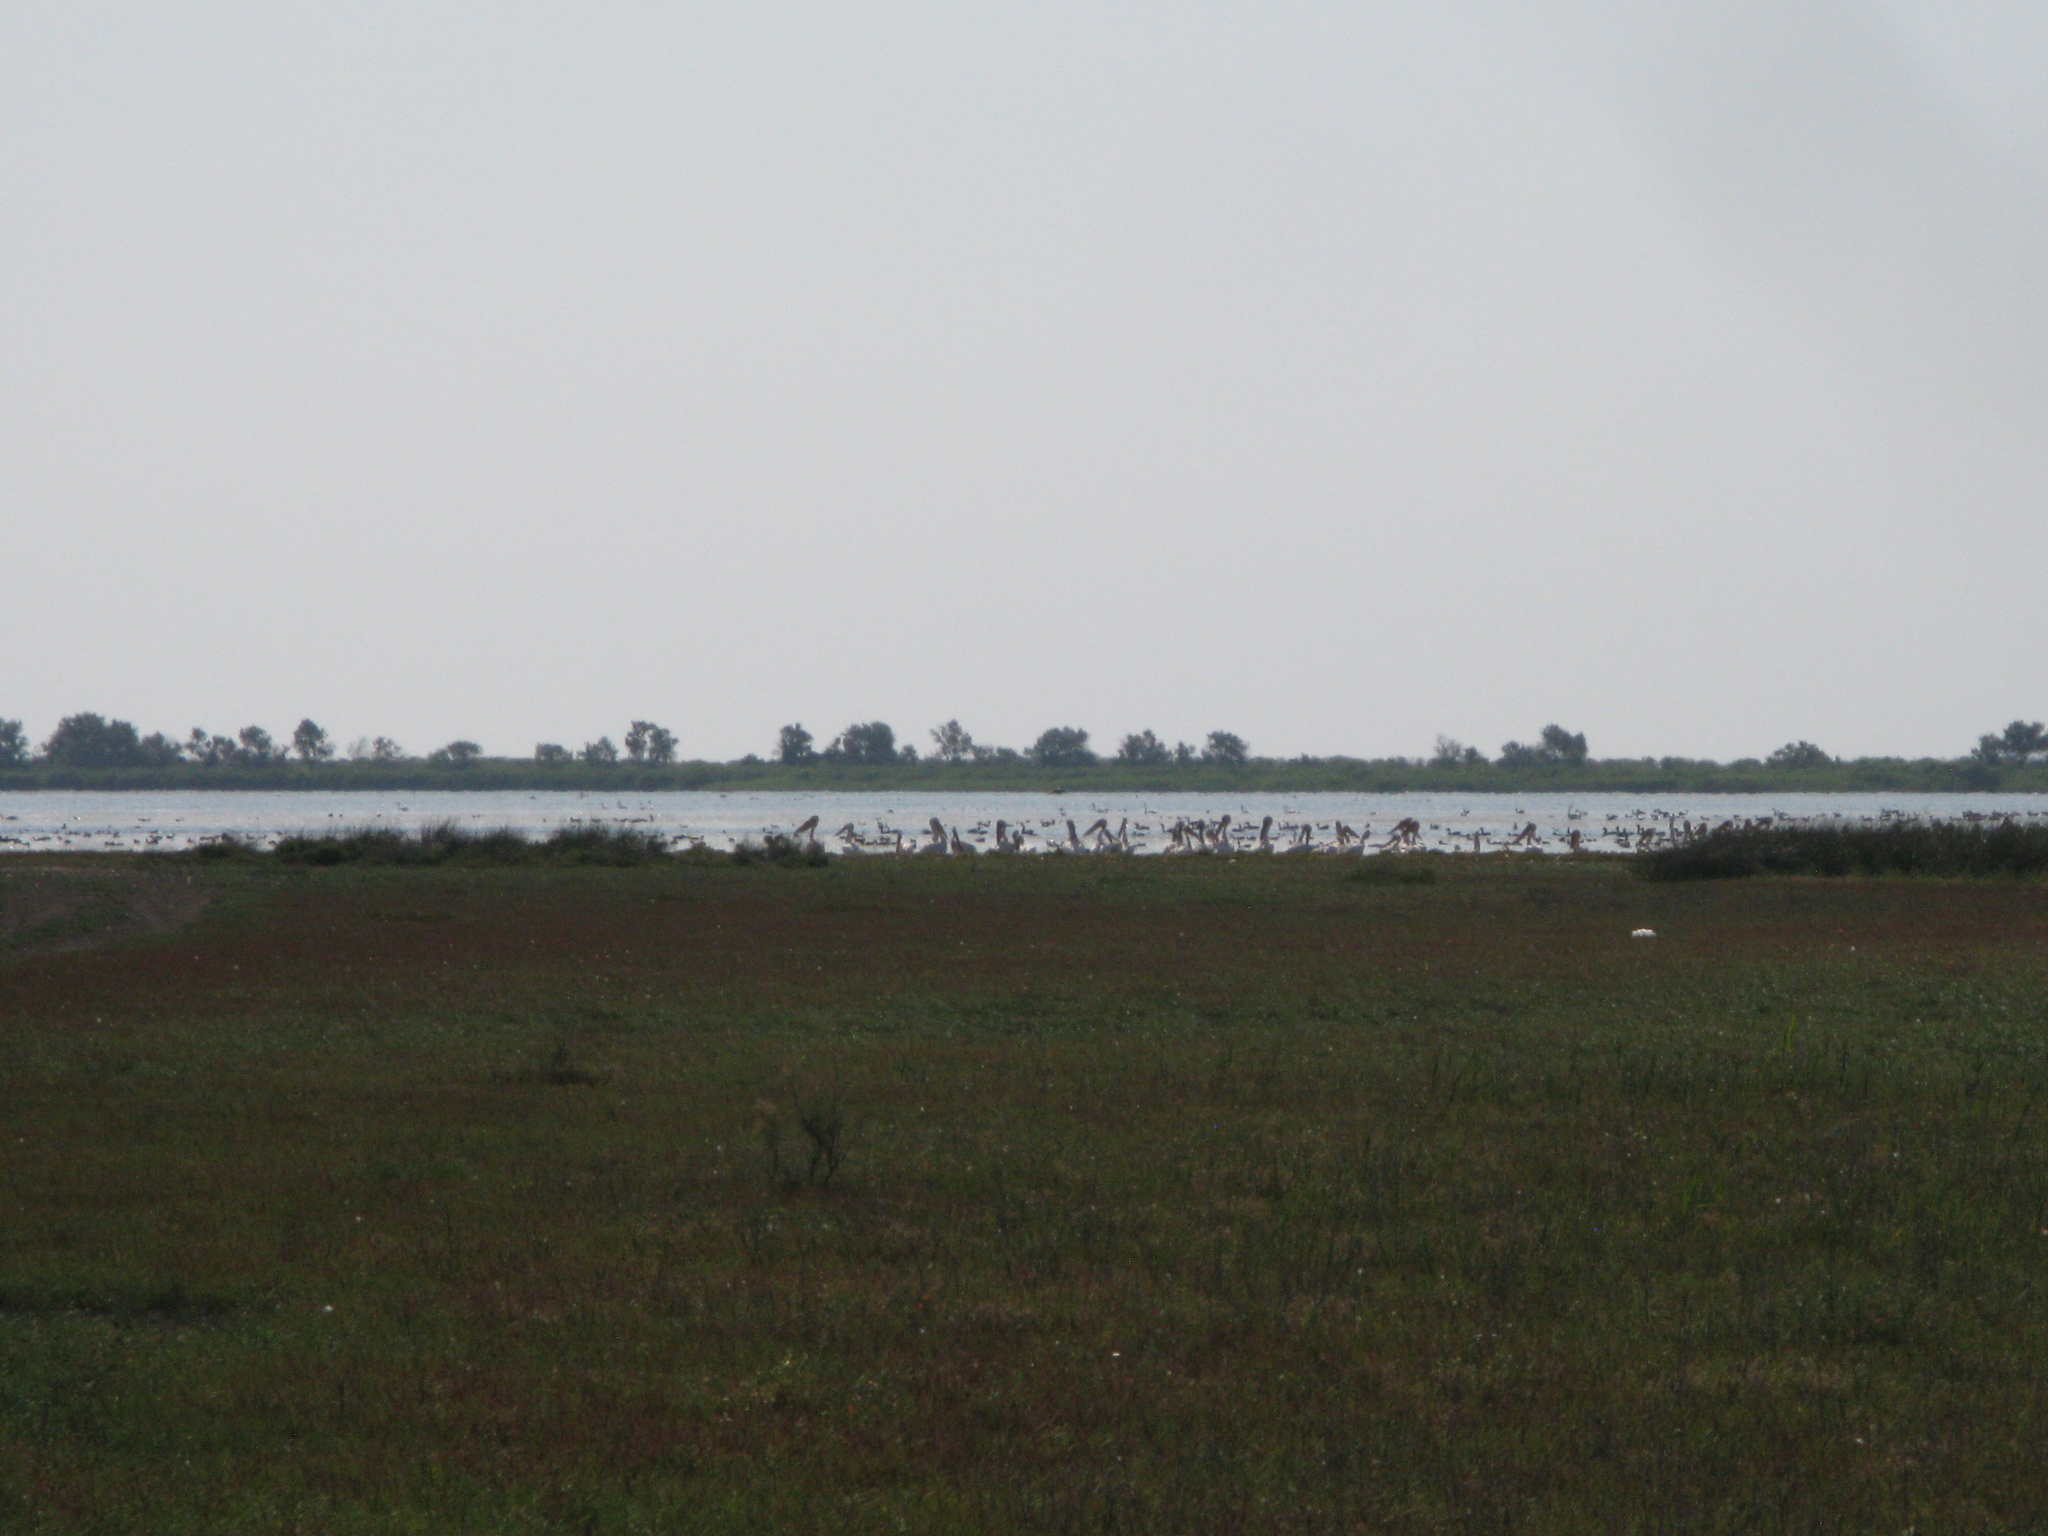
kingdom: Animalia
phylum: Chordata
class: Aves
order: Pelecaniformes
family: Pelecanidae
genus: Pelecanus
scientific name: Pelecanus onocrotalus
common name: Great white pelican
